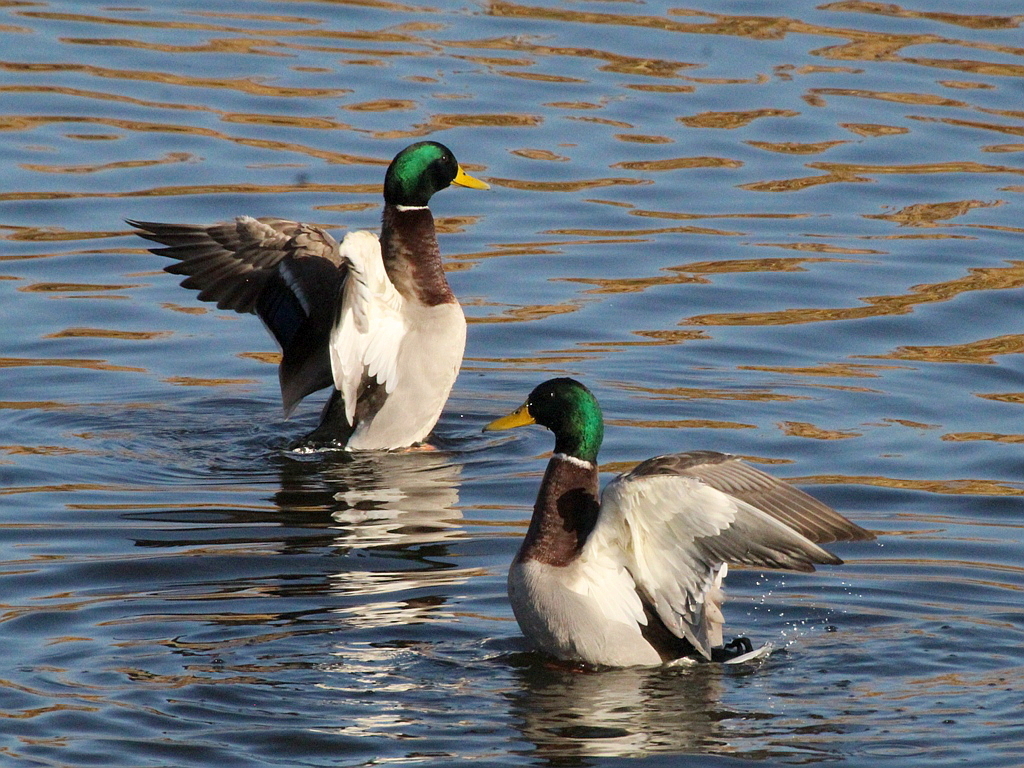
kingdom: Animalia
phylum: Chordata
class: Aves
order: Anseriformes
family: Anatidae
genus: Anas
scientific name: Anas platyrhynchos
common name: Mallard
